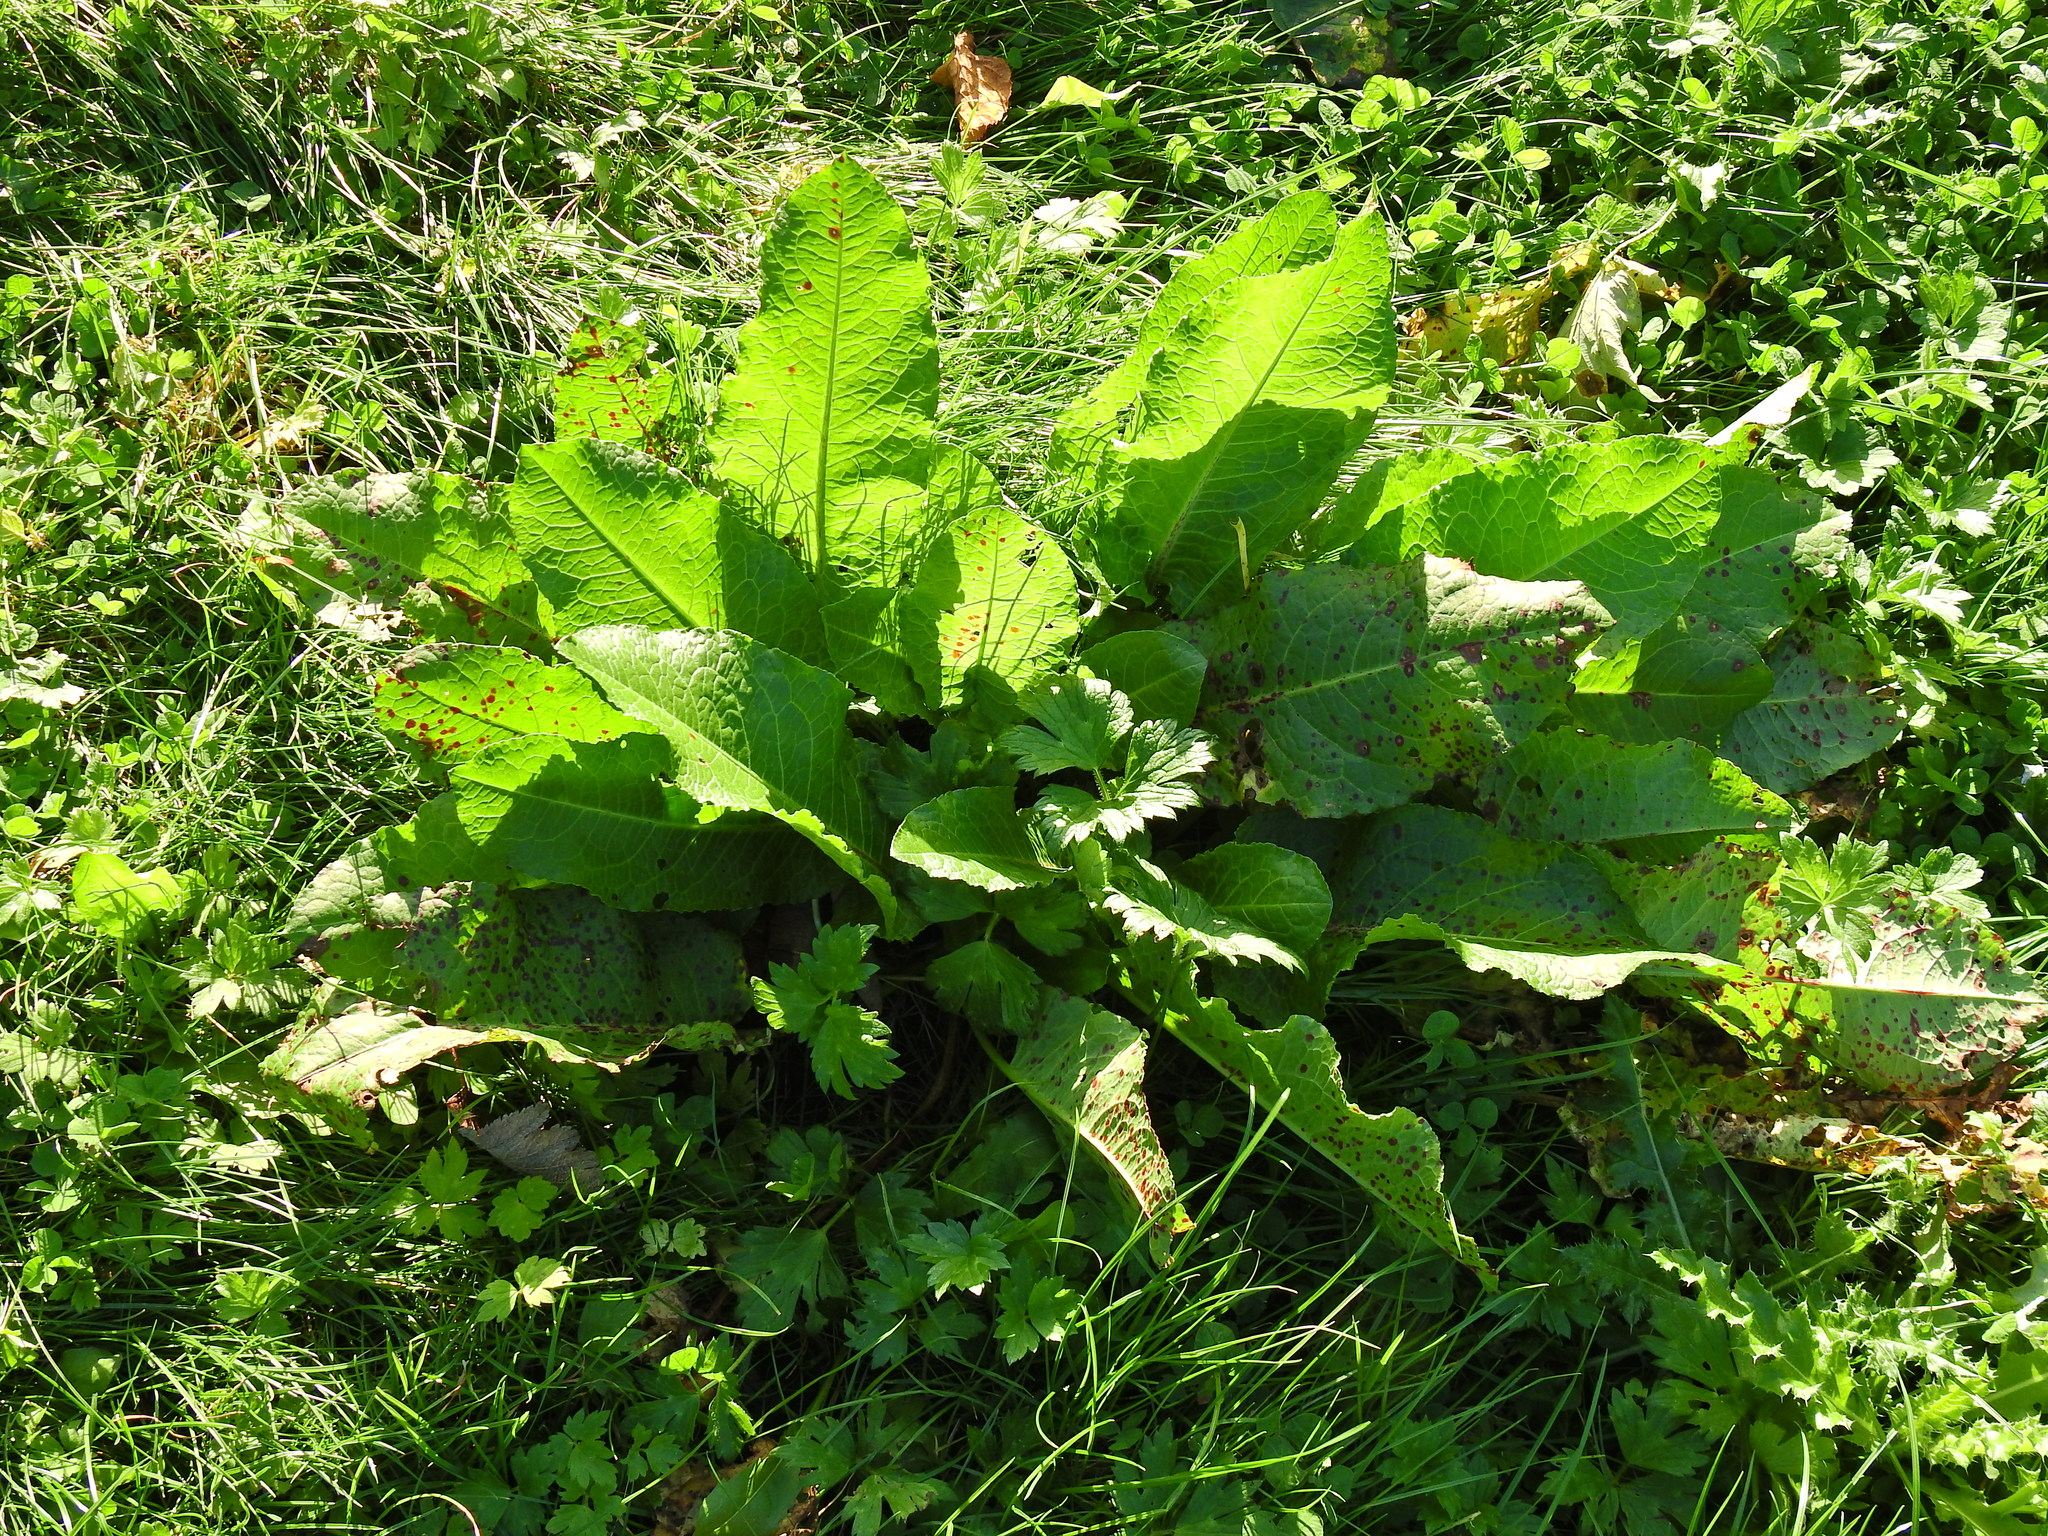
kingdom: Plantae
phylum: Tracheophyta
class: Magnoliopsida
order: Caryophyllales
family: Polygonaceae
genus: Rumex
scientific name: Rumex obtusifolius
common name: Bitter dock
